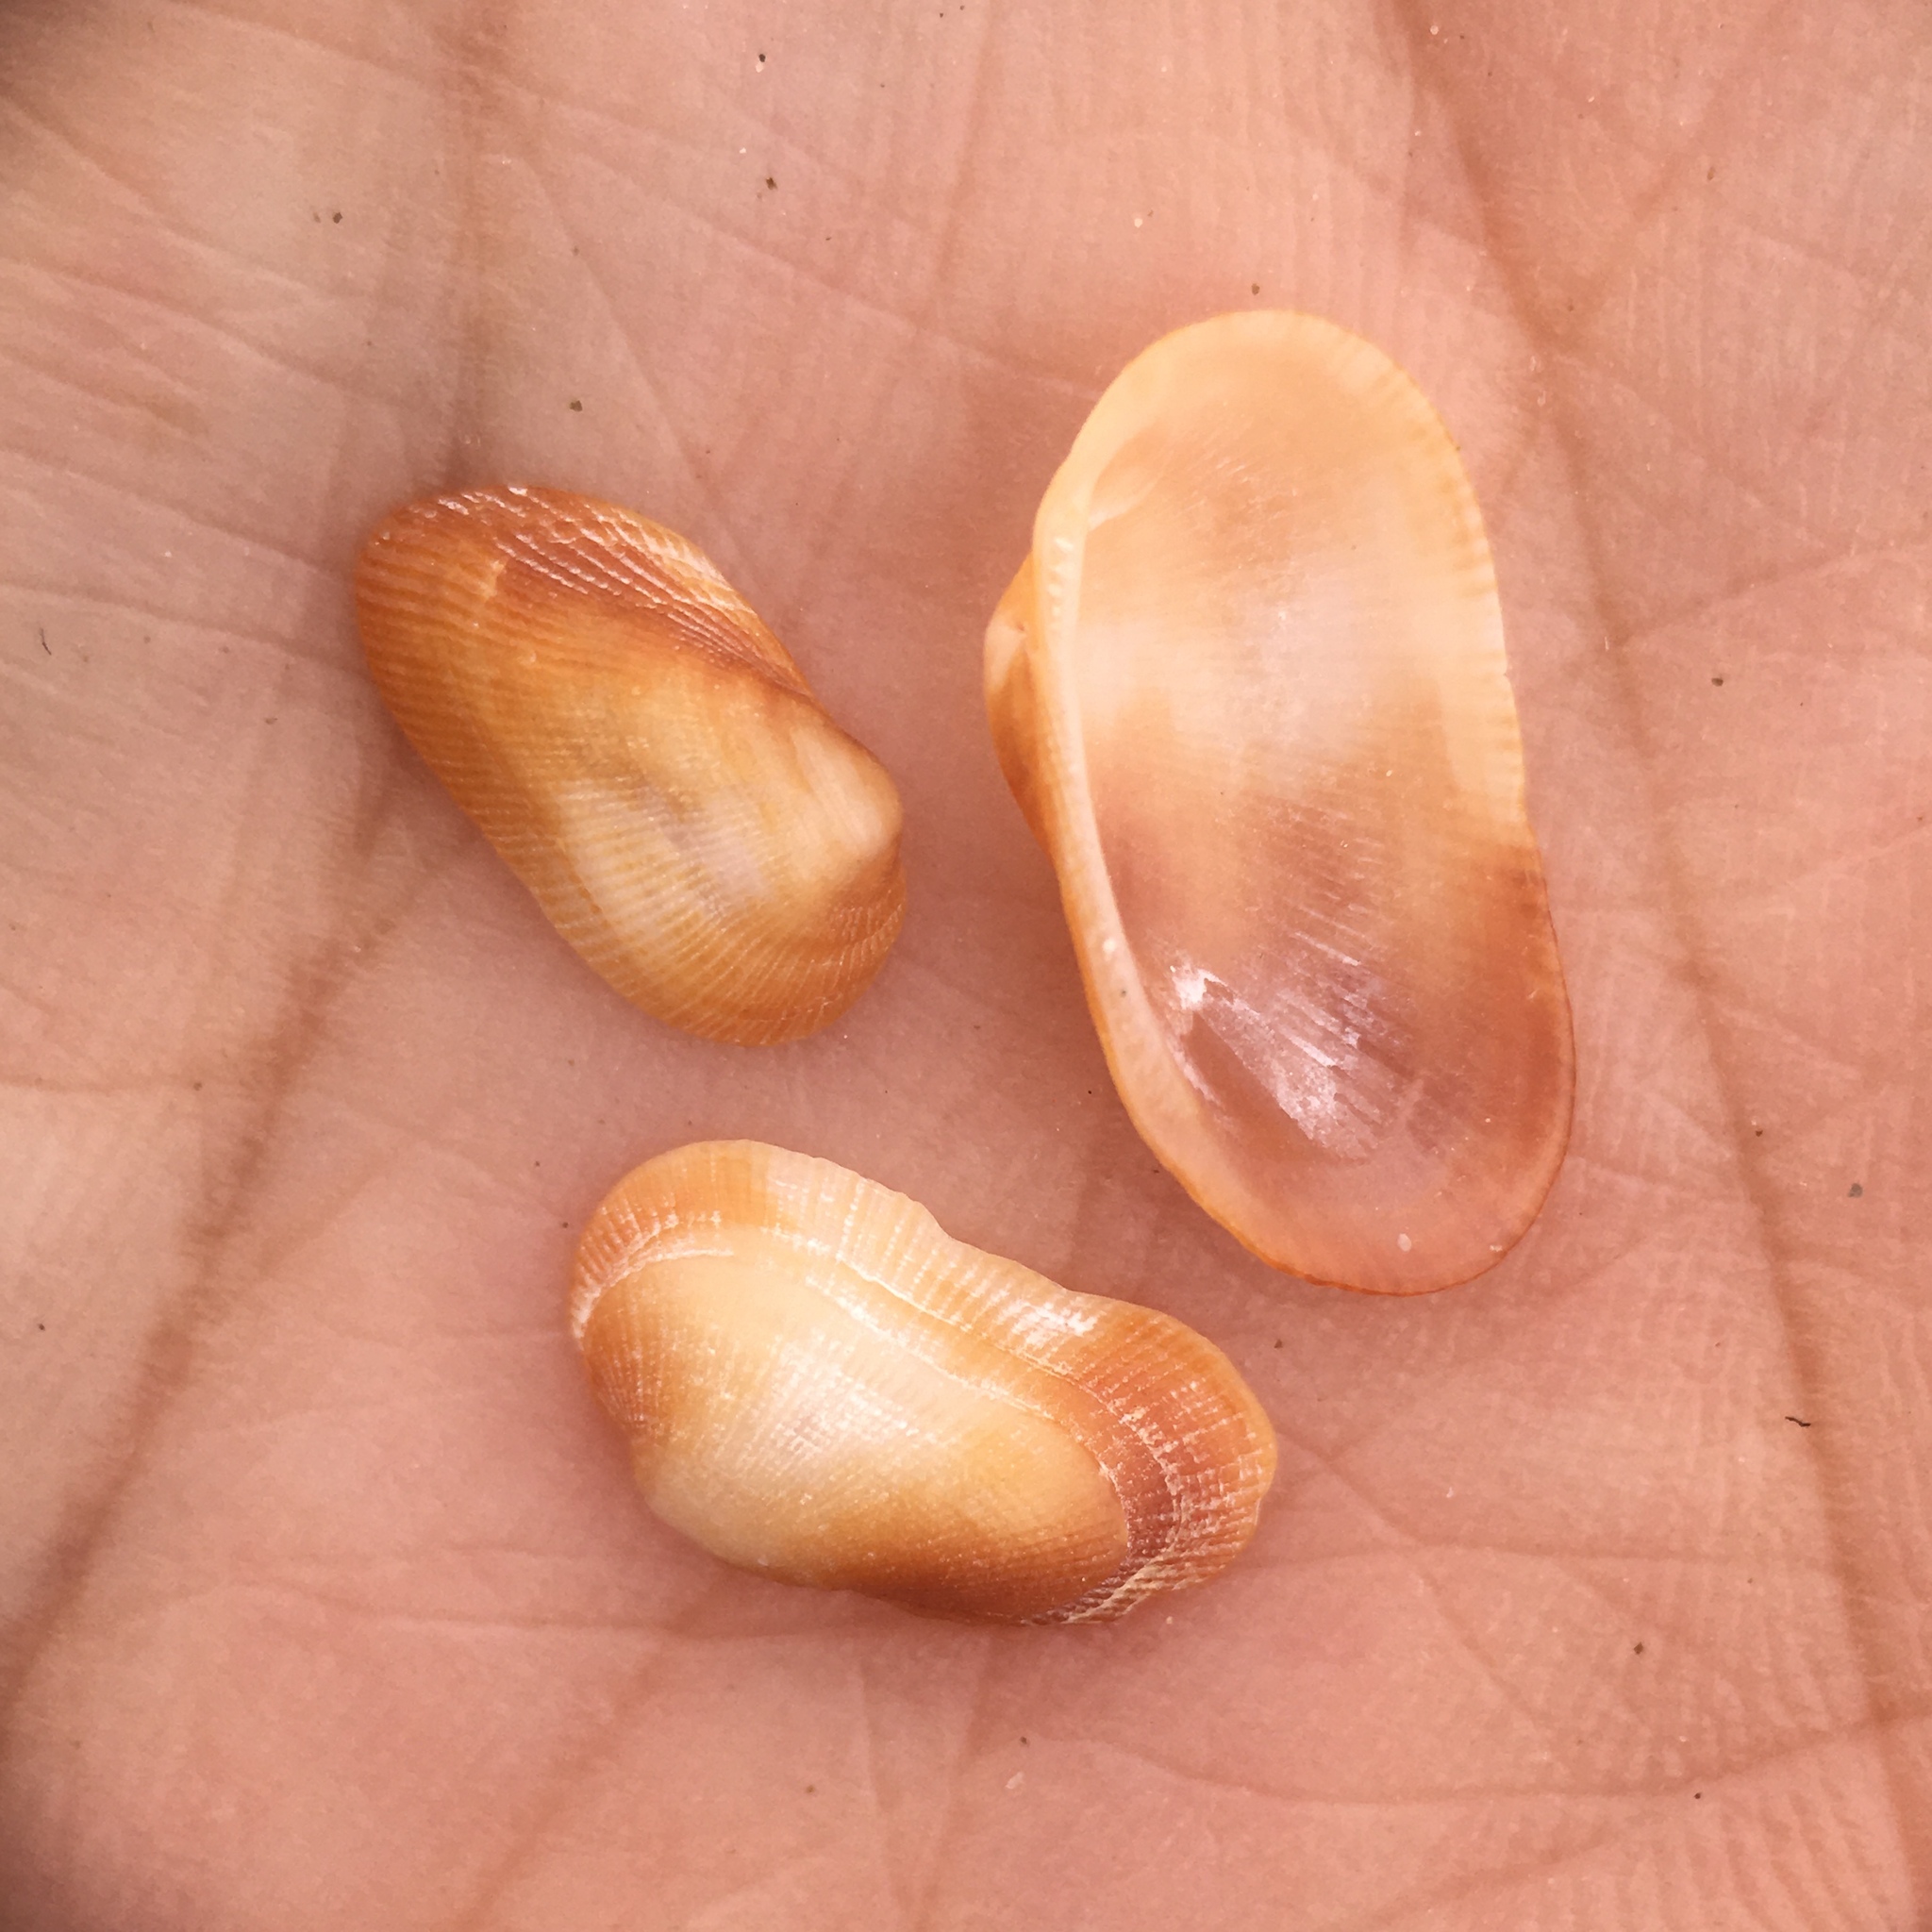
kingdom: Animalia
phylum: Mollusca
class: Bivalvia
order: Arcida
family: Arcidae
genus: Barbatia
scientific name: Barbatia barbata
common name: Bearded ark
